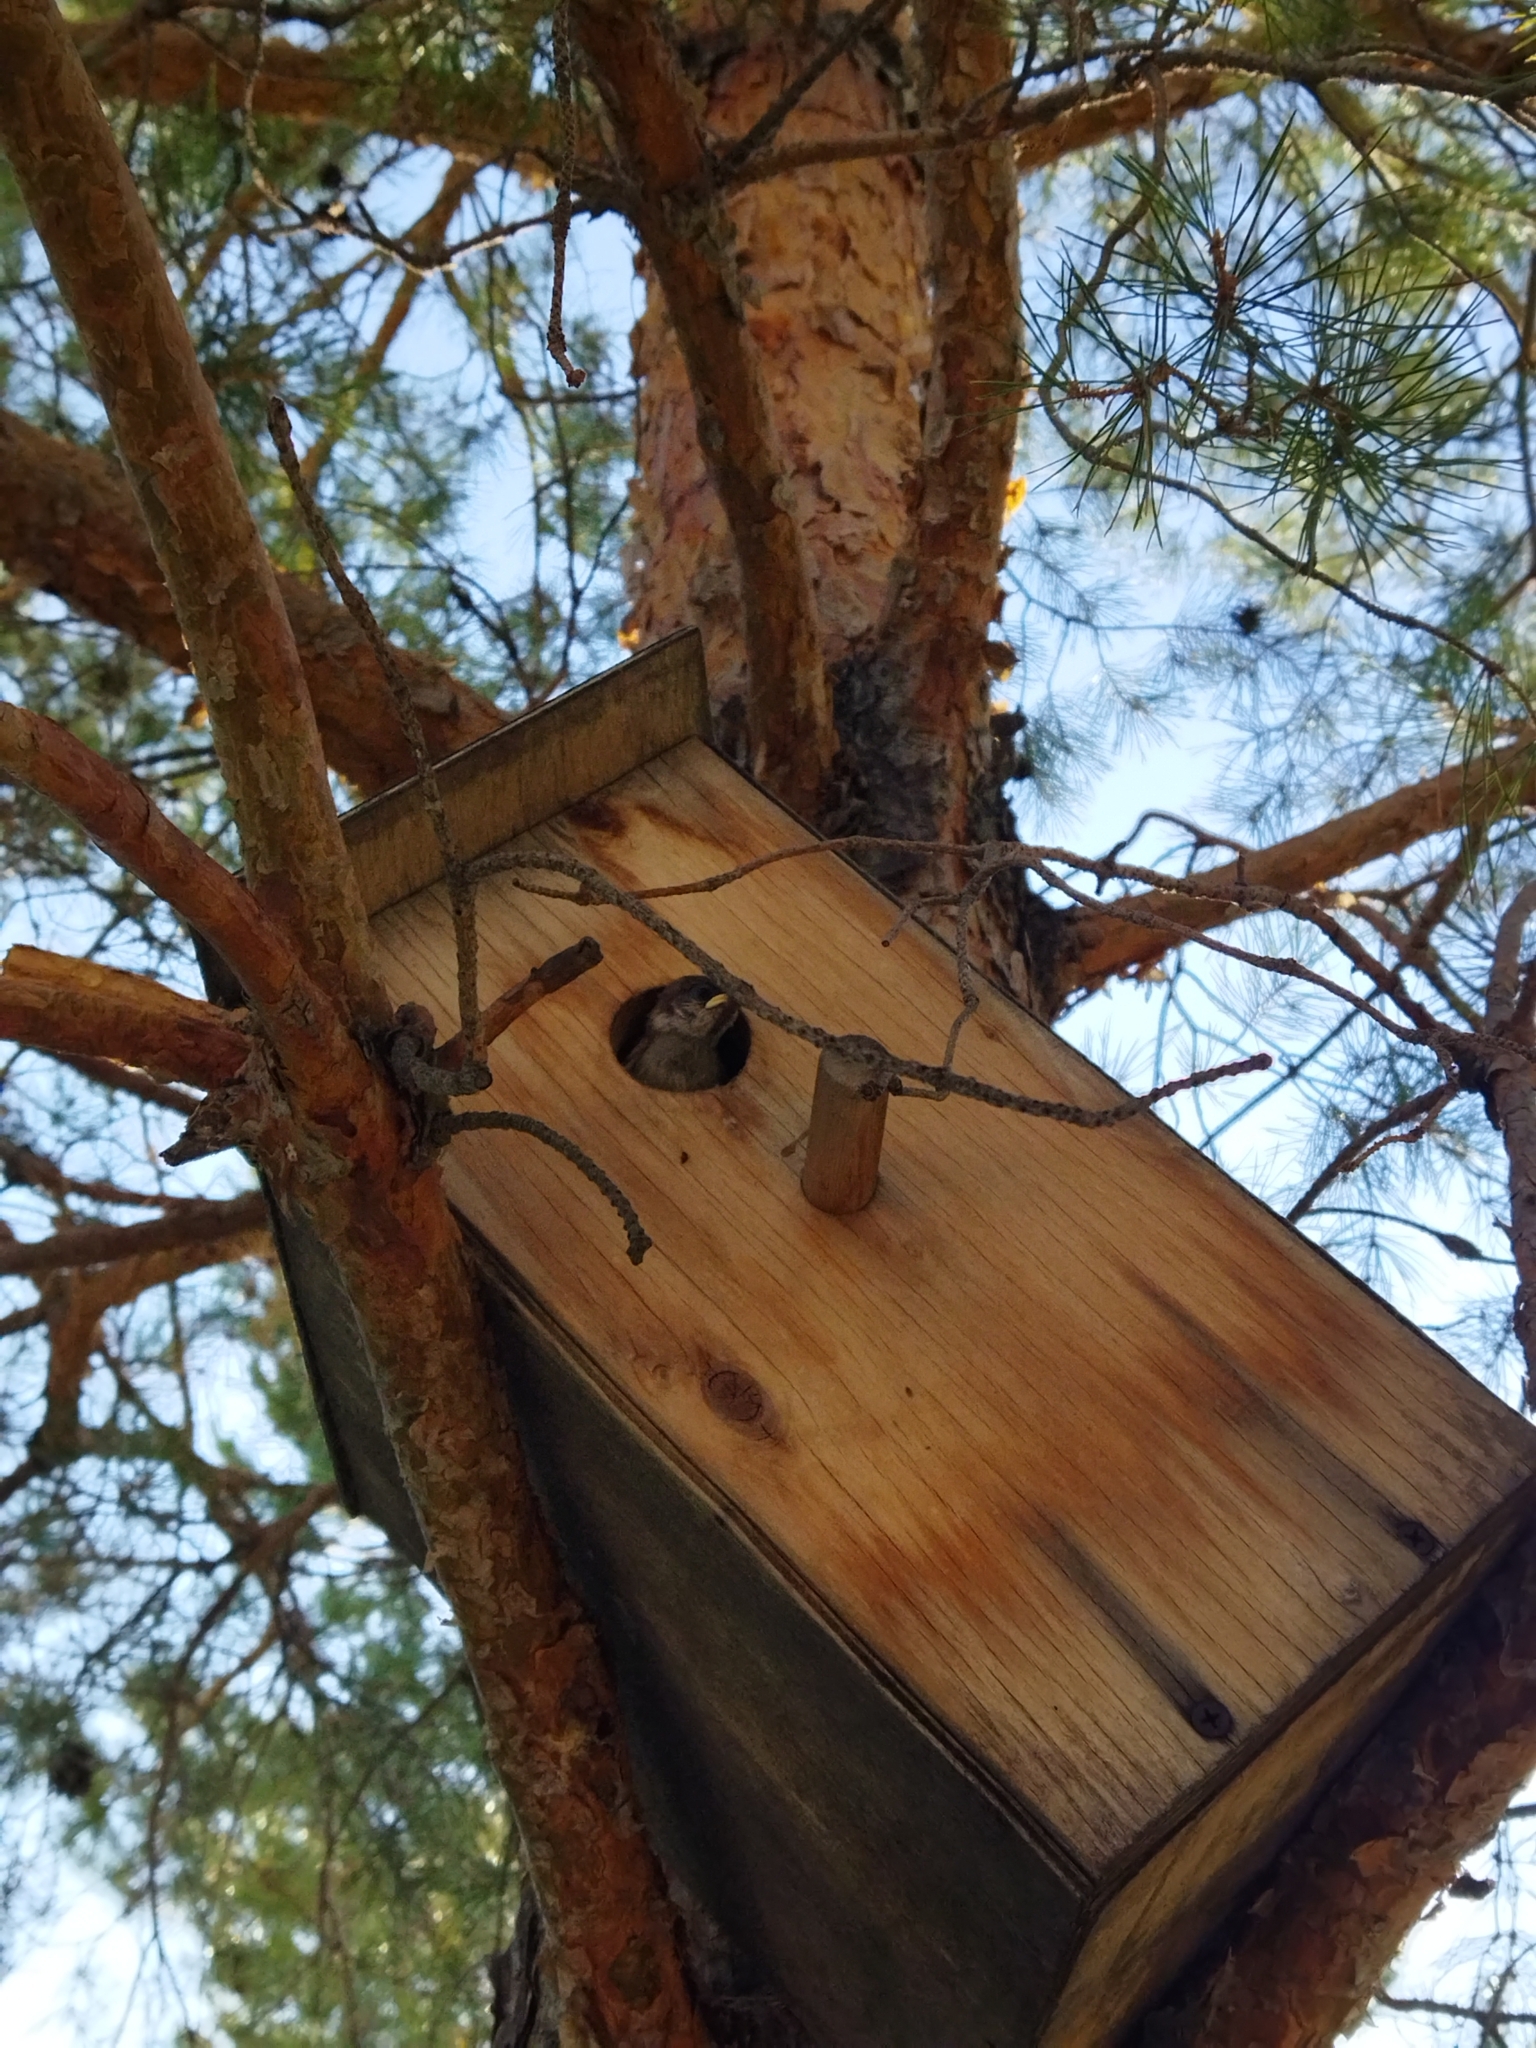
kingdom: Animalia
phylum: Chordata
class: Aves
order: Passeriformes
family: Passeridae
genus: Passer
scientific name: Passer montanus
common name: Eurasian tree sparrow
